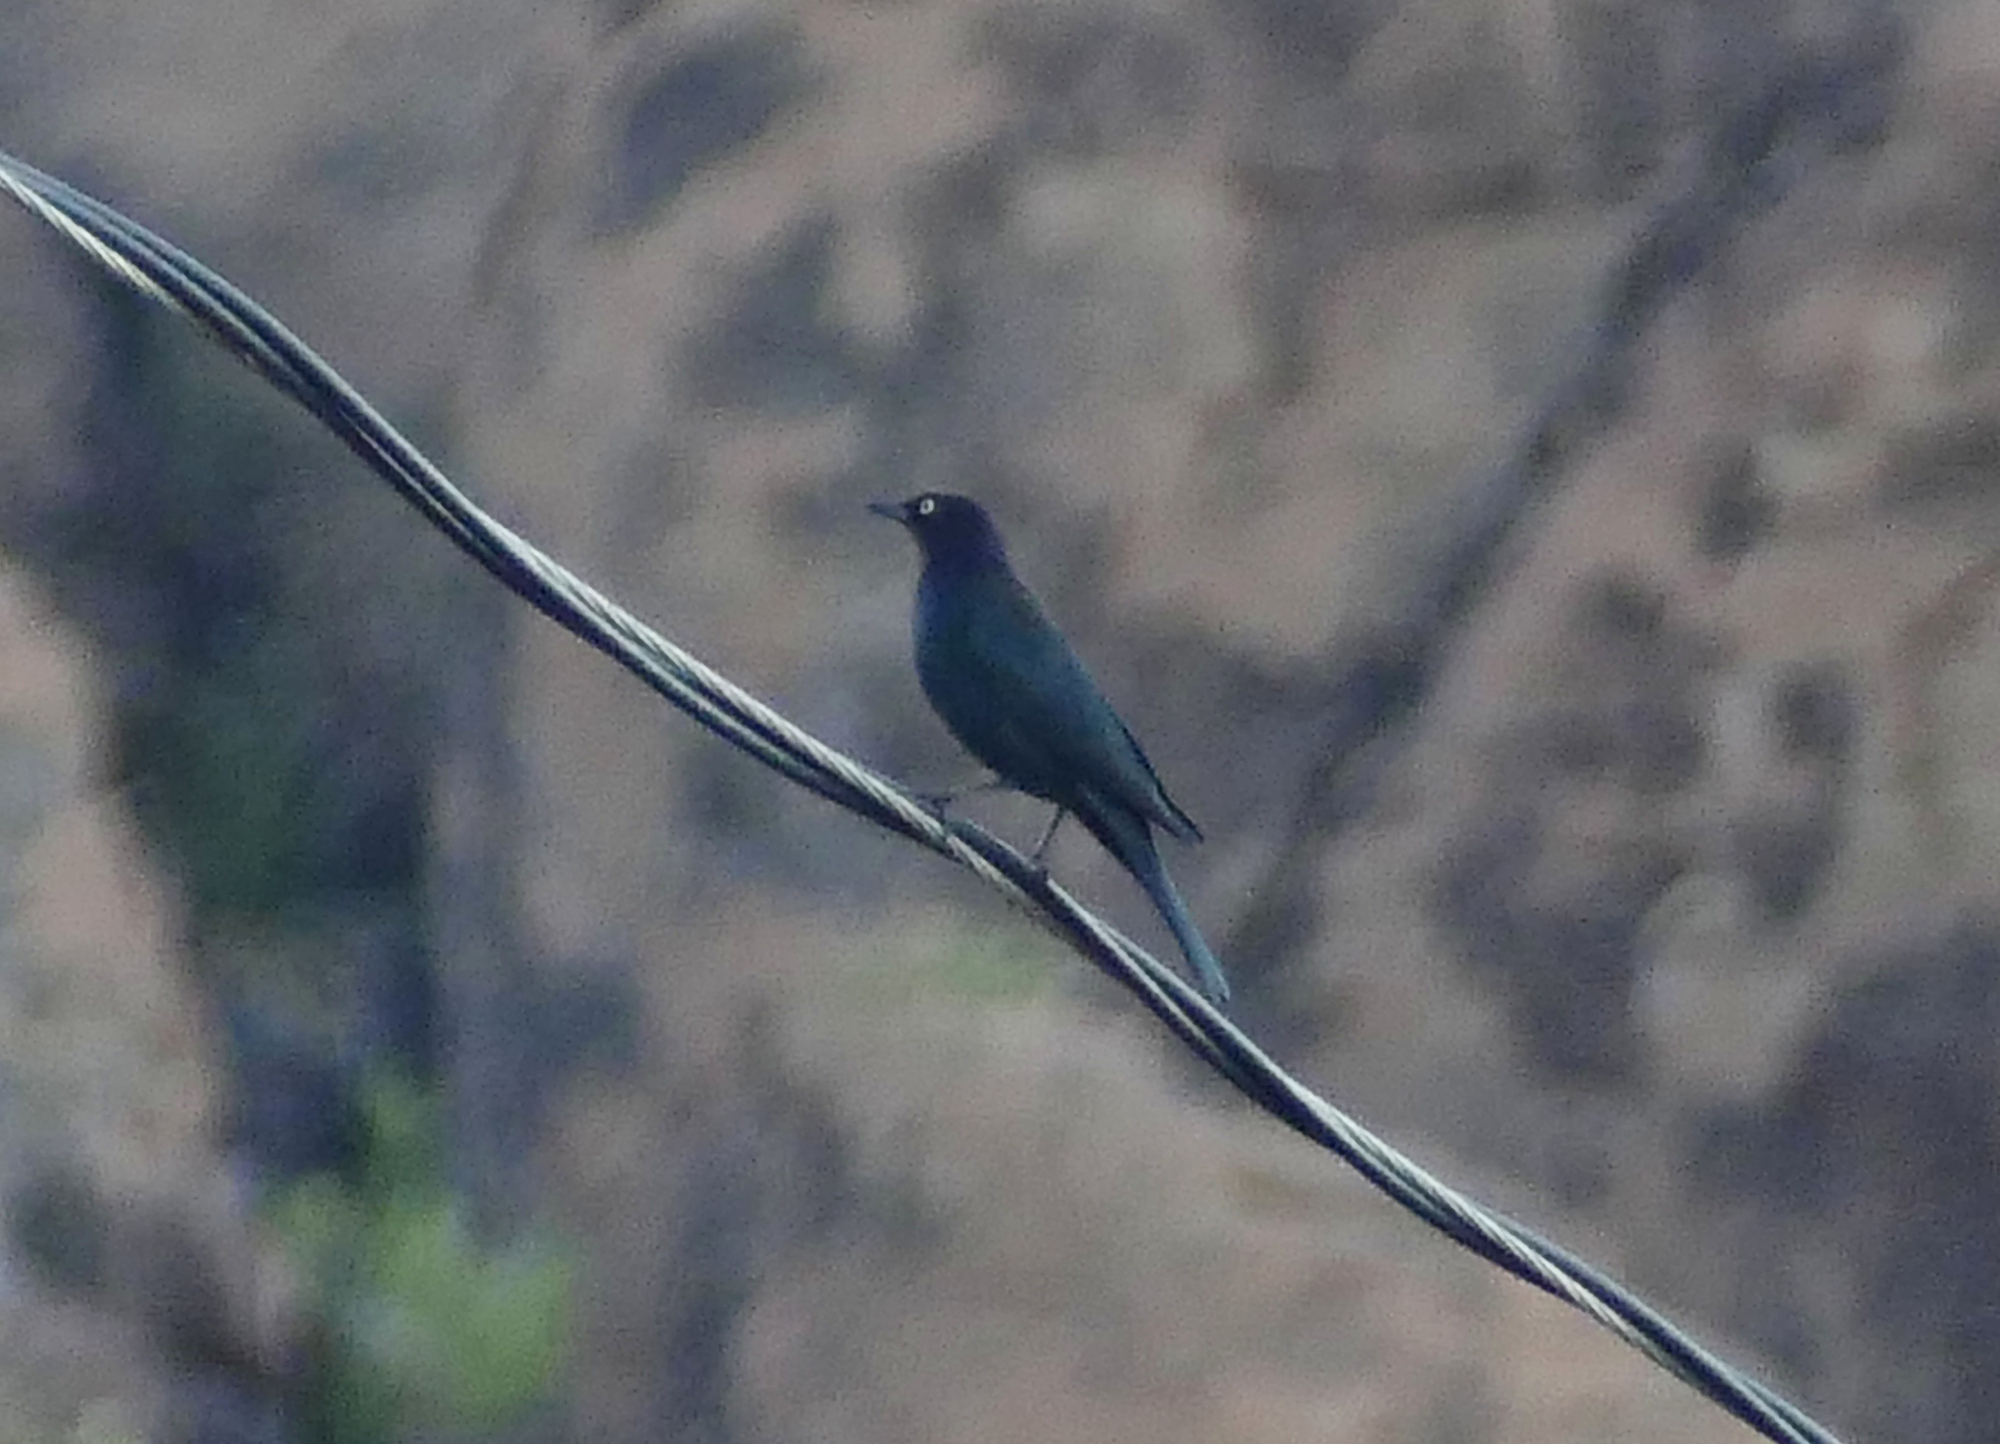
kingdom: Animalia
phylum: Chordata
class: Aves
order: Passeriformes
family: Icteridae
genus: Euphagus
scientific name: Euphagus cyanocephalus
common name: Brewer's blackbird
